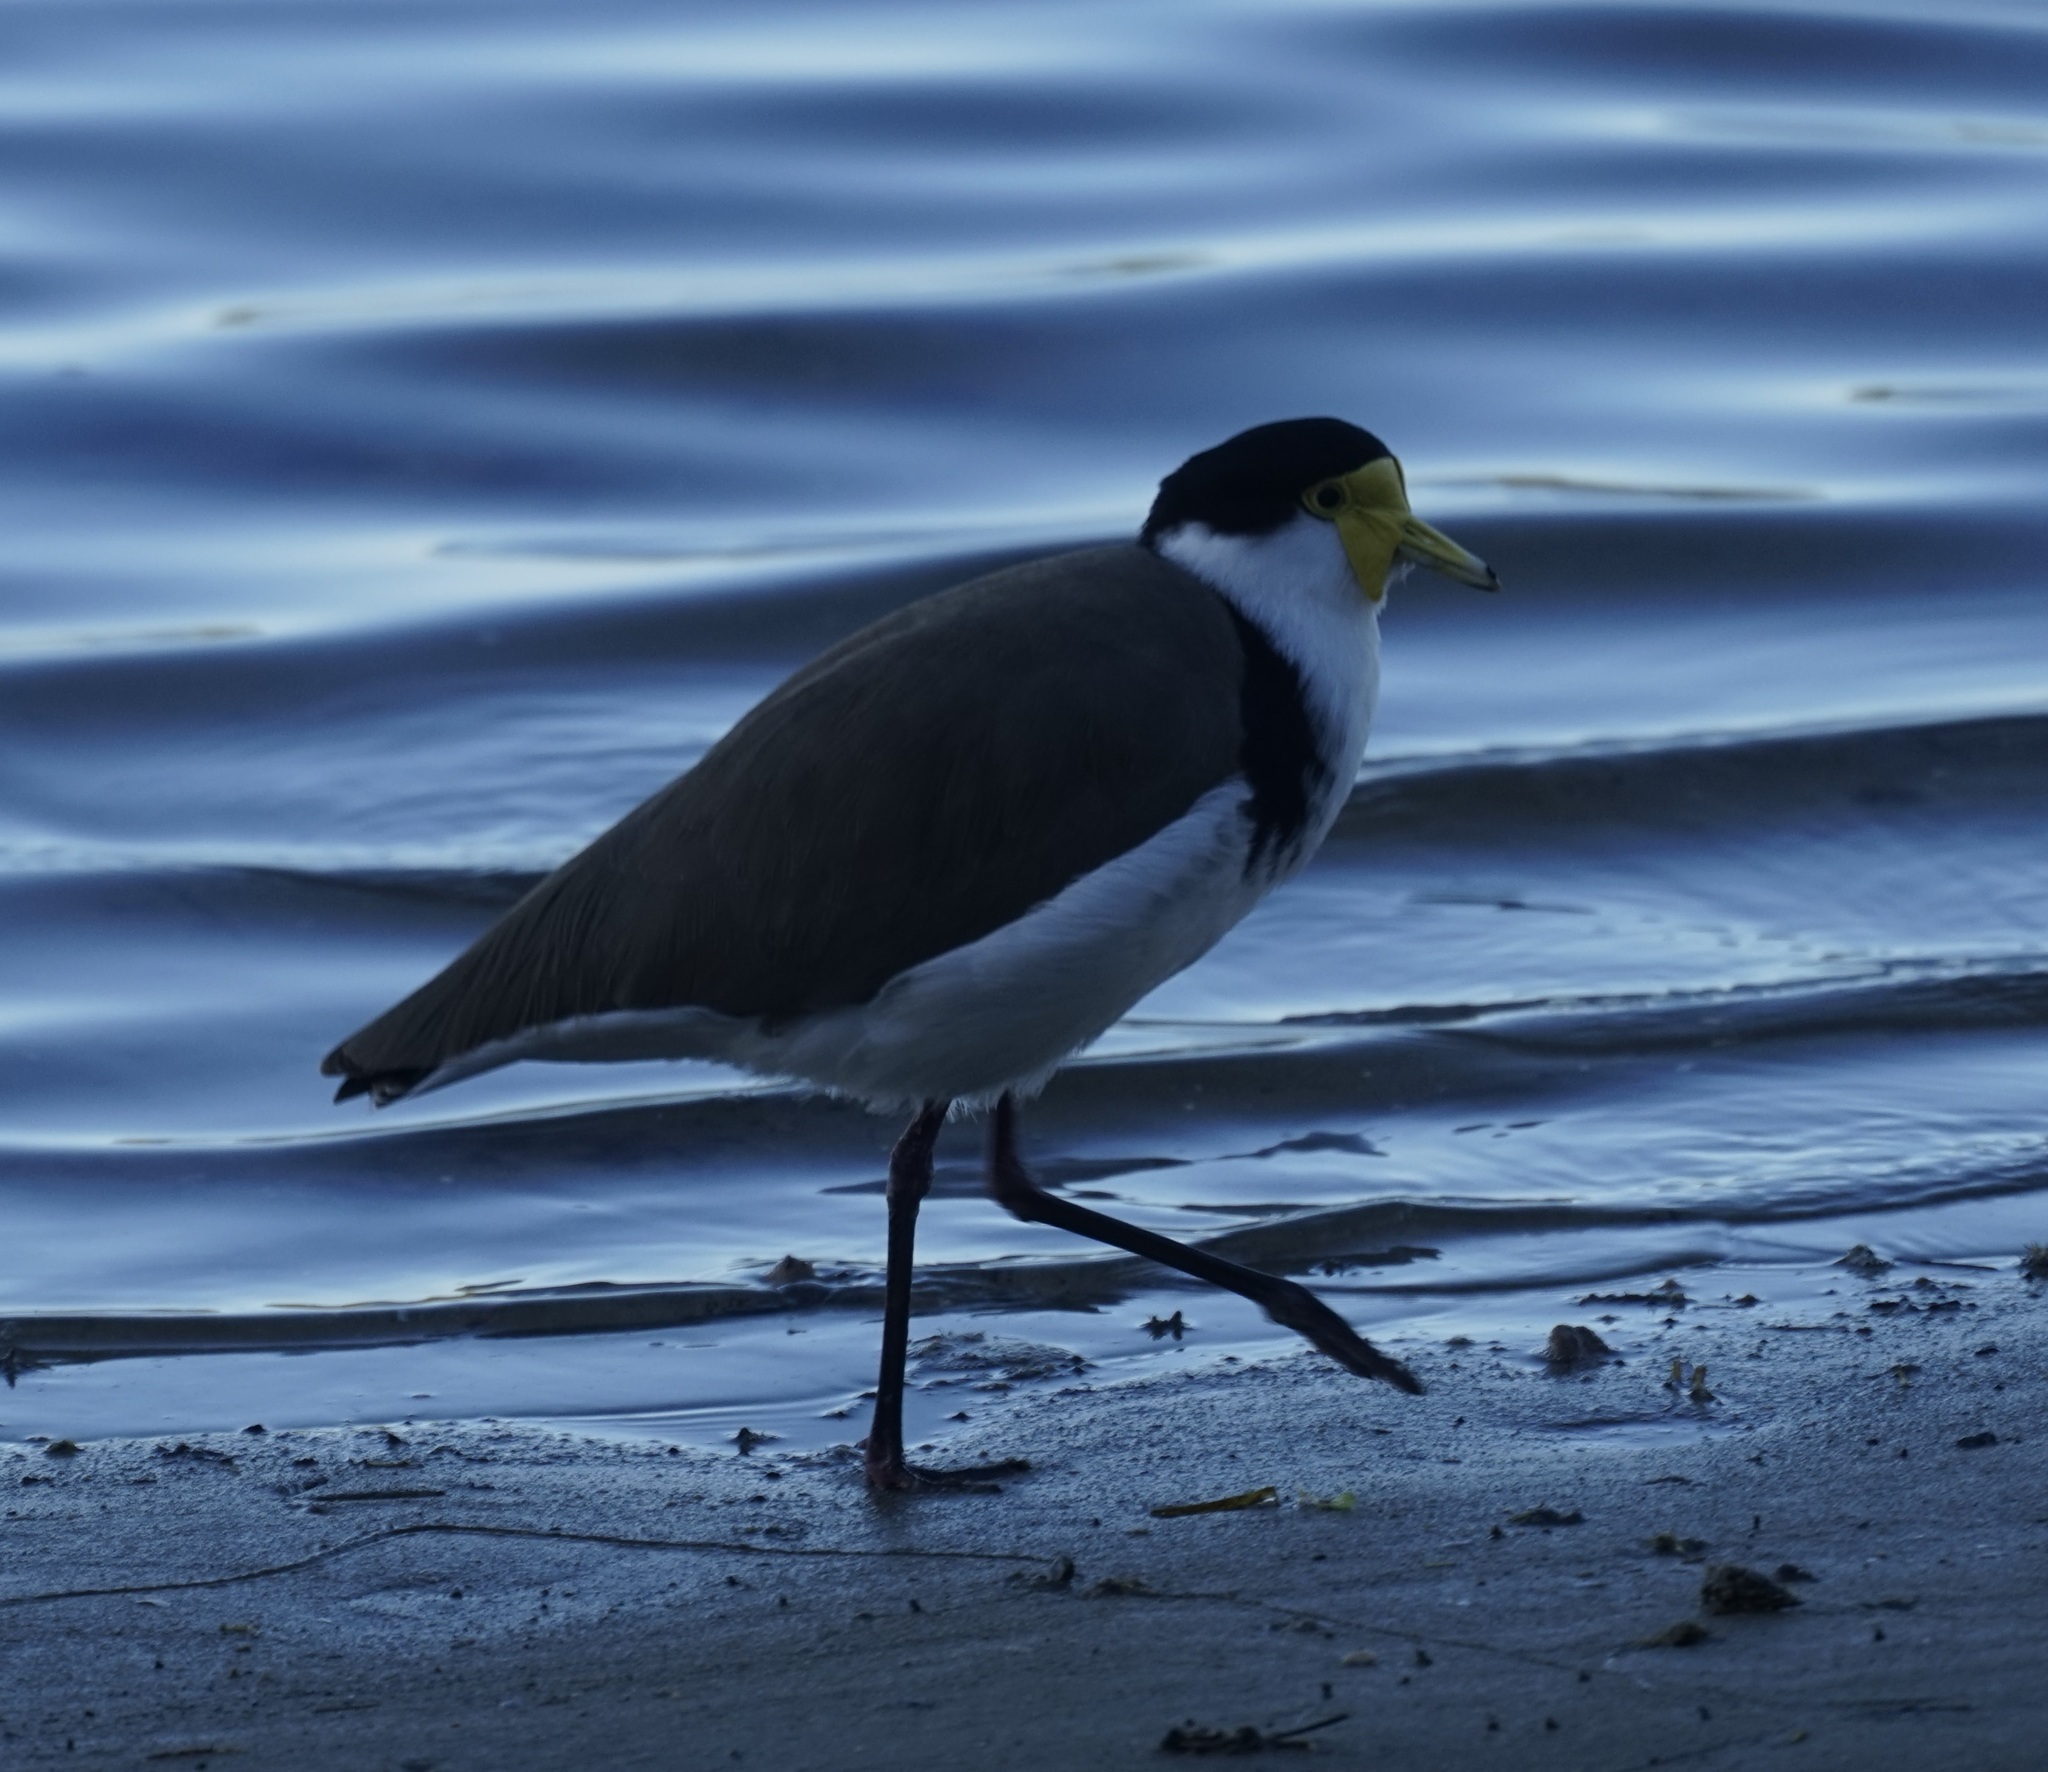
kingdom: Animalia
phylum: Chordata
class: Aves
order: Charadriiformes
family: Charadriidae
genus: Vanellus
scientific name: Vanellus miles
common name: Masked lapwing
